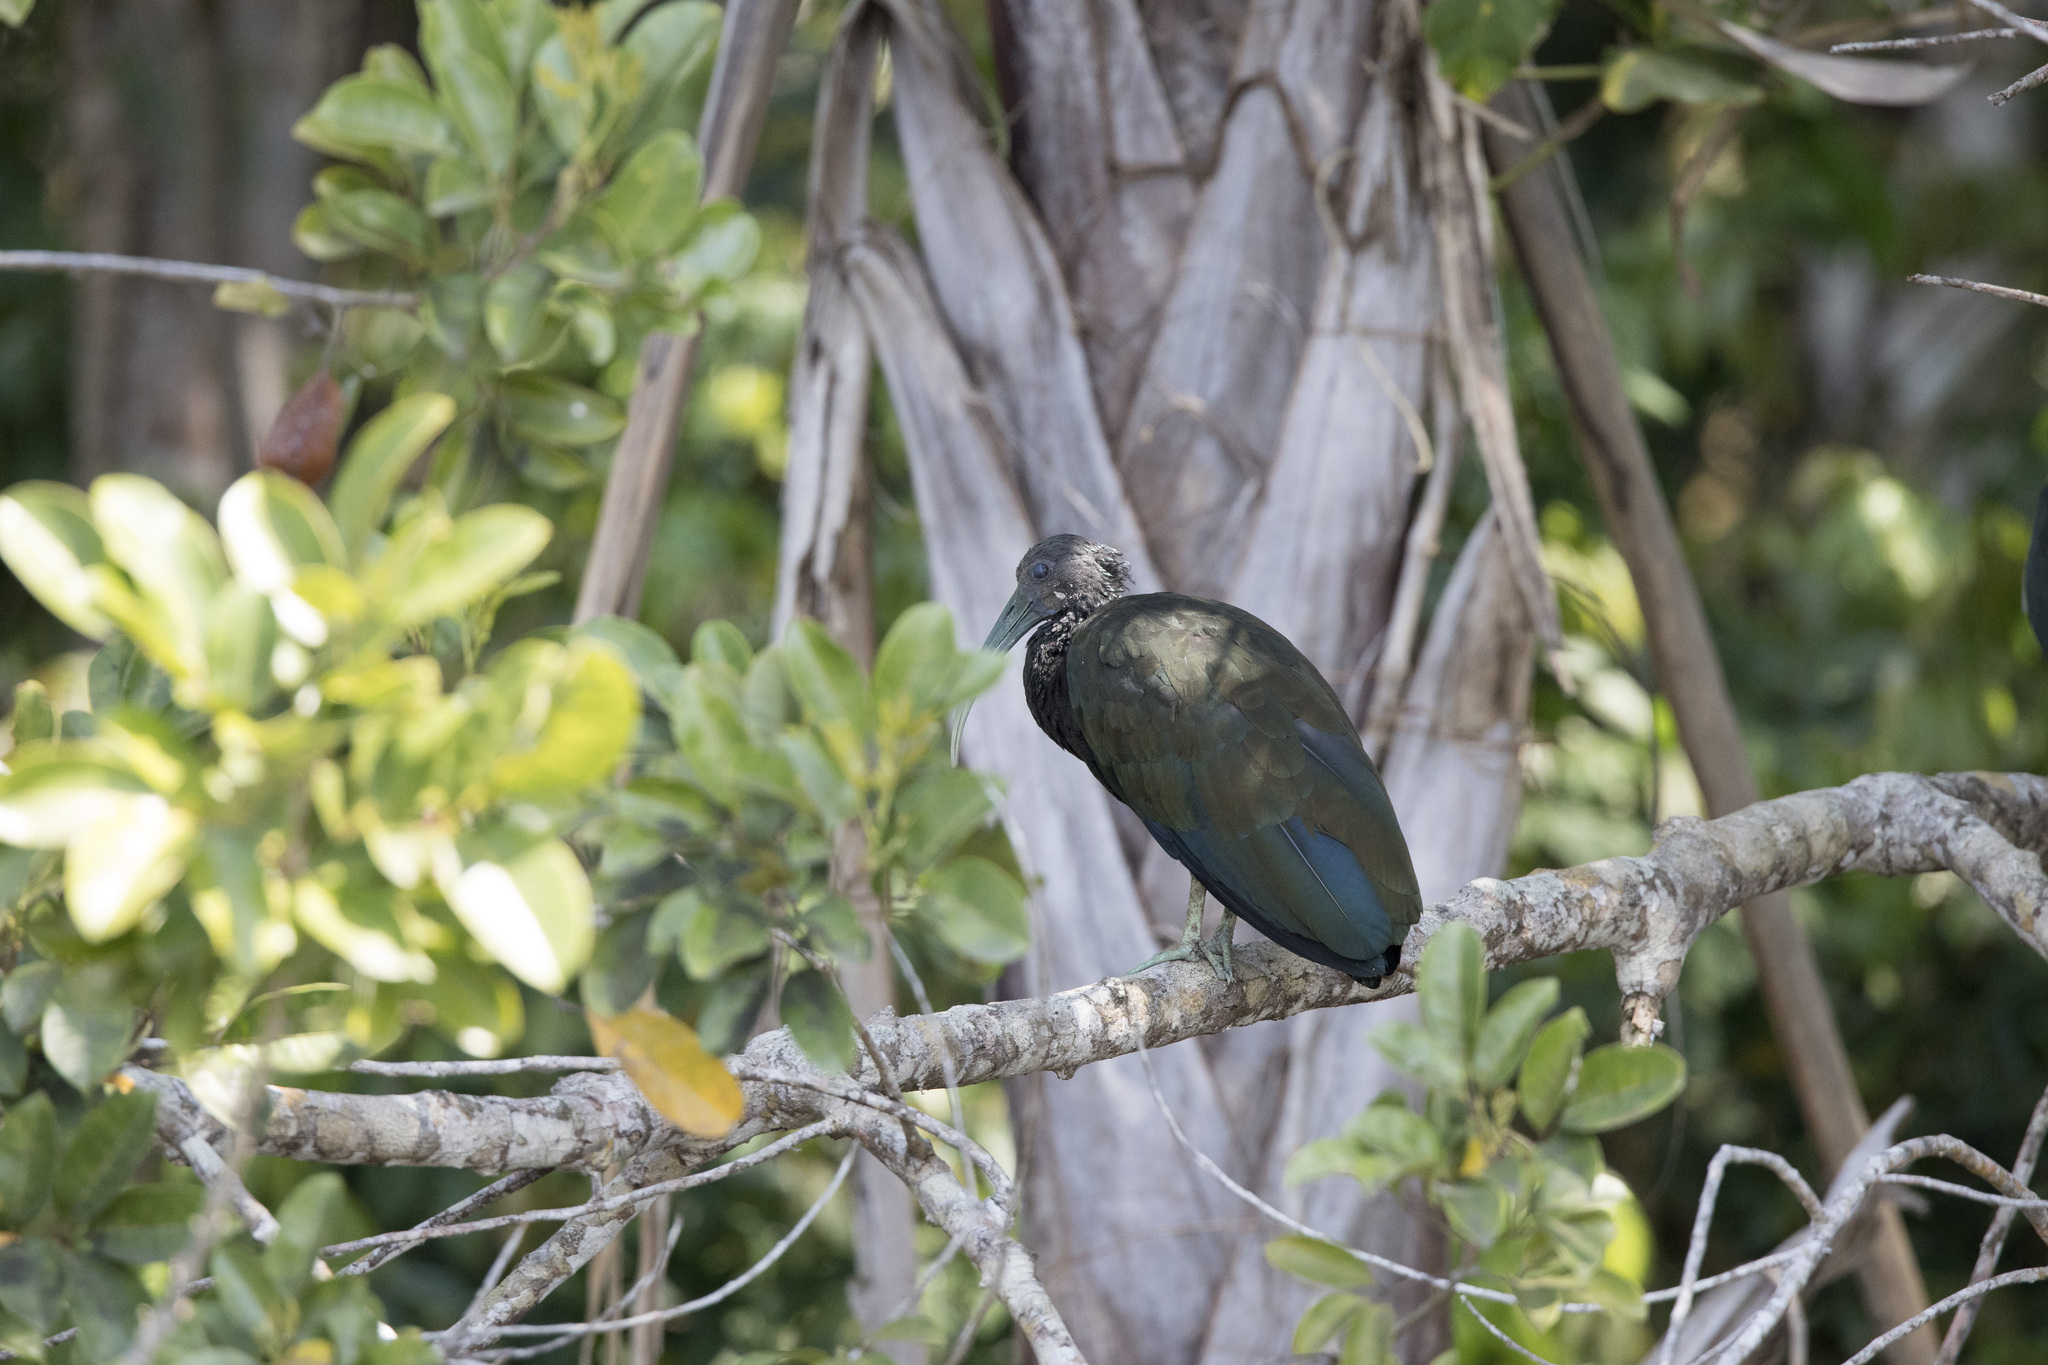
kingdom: Animalia
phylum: Chordata
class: Aves
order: Pelecaniformes
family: Threskiornithidae
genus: Mesembrinibis
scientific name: Mesembrinibis cayennensis
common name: Green ibis
